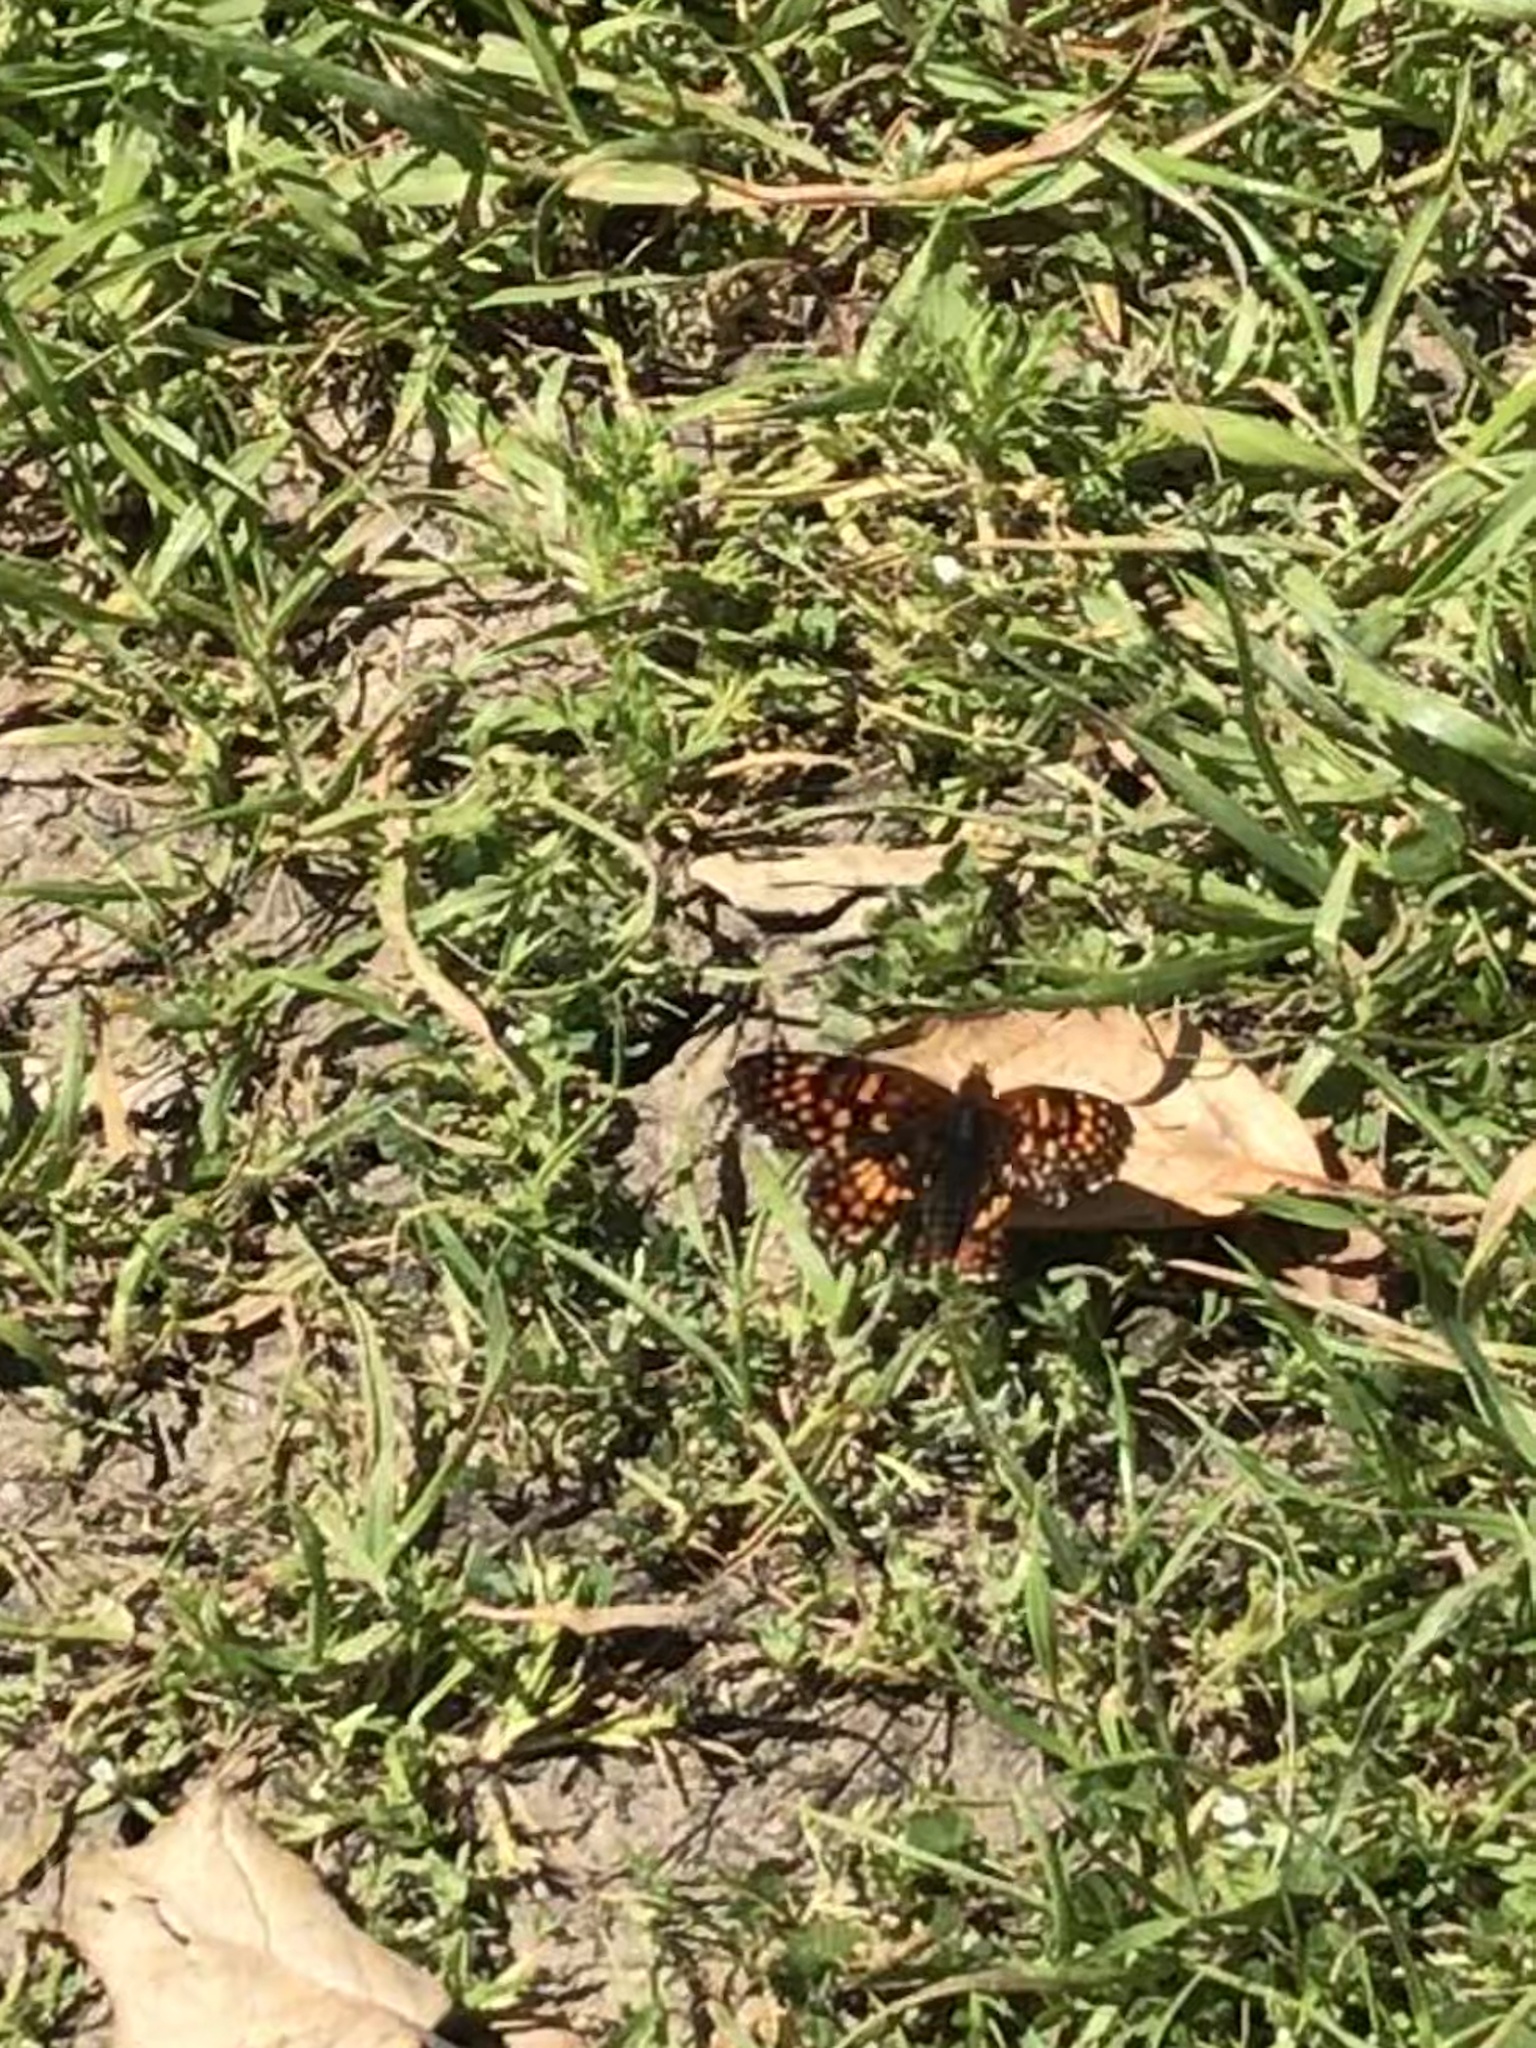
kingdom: Animalia
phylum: Arthropoda
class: Insecta
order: Lepidoptera
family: Nymphalidae
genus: Chlosyne
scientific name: Chlosyne palla
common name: Northern checkerspot
